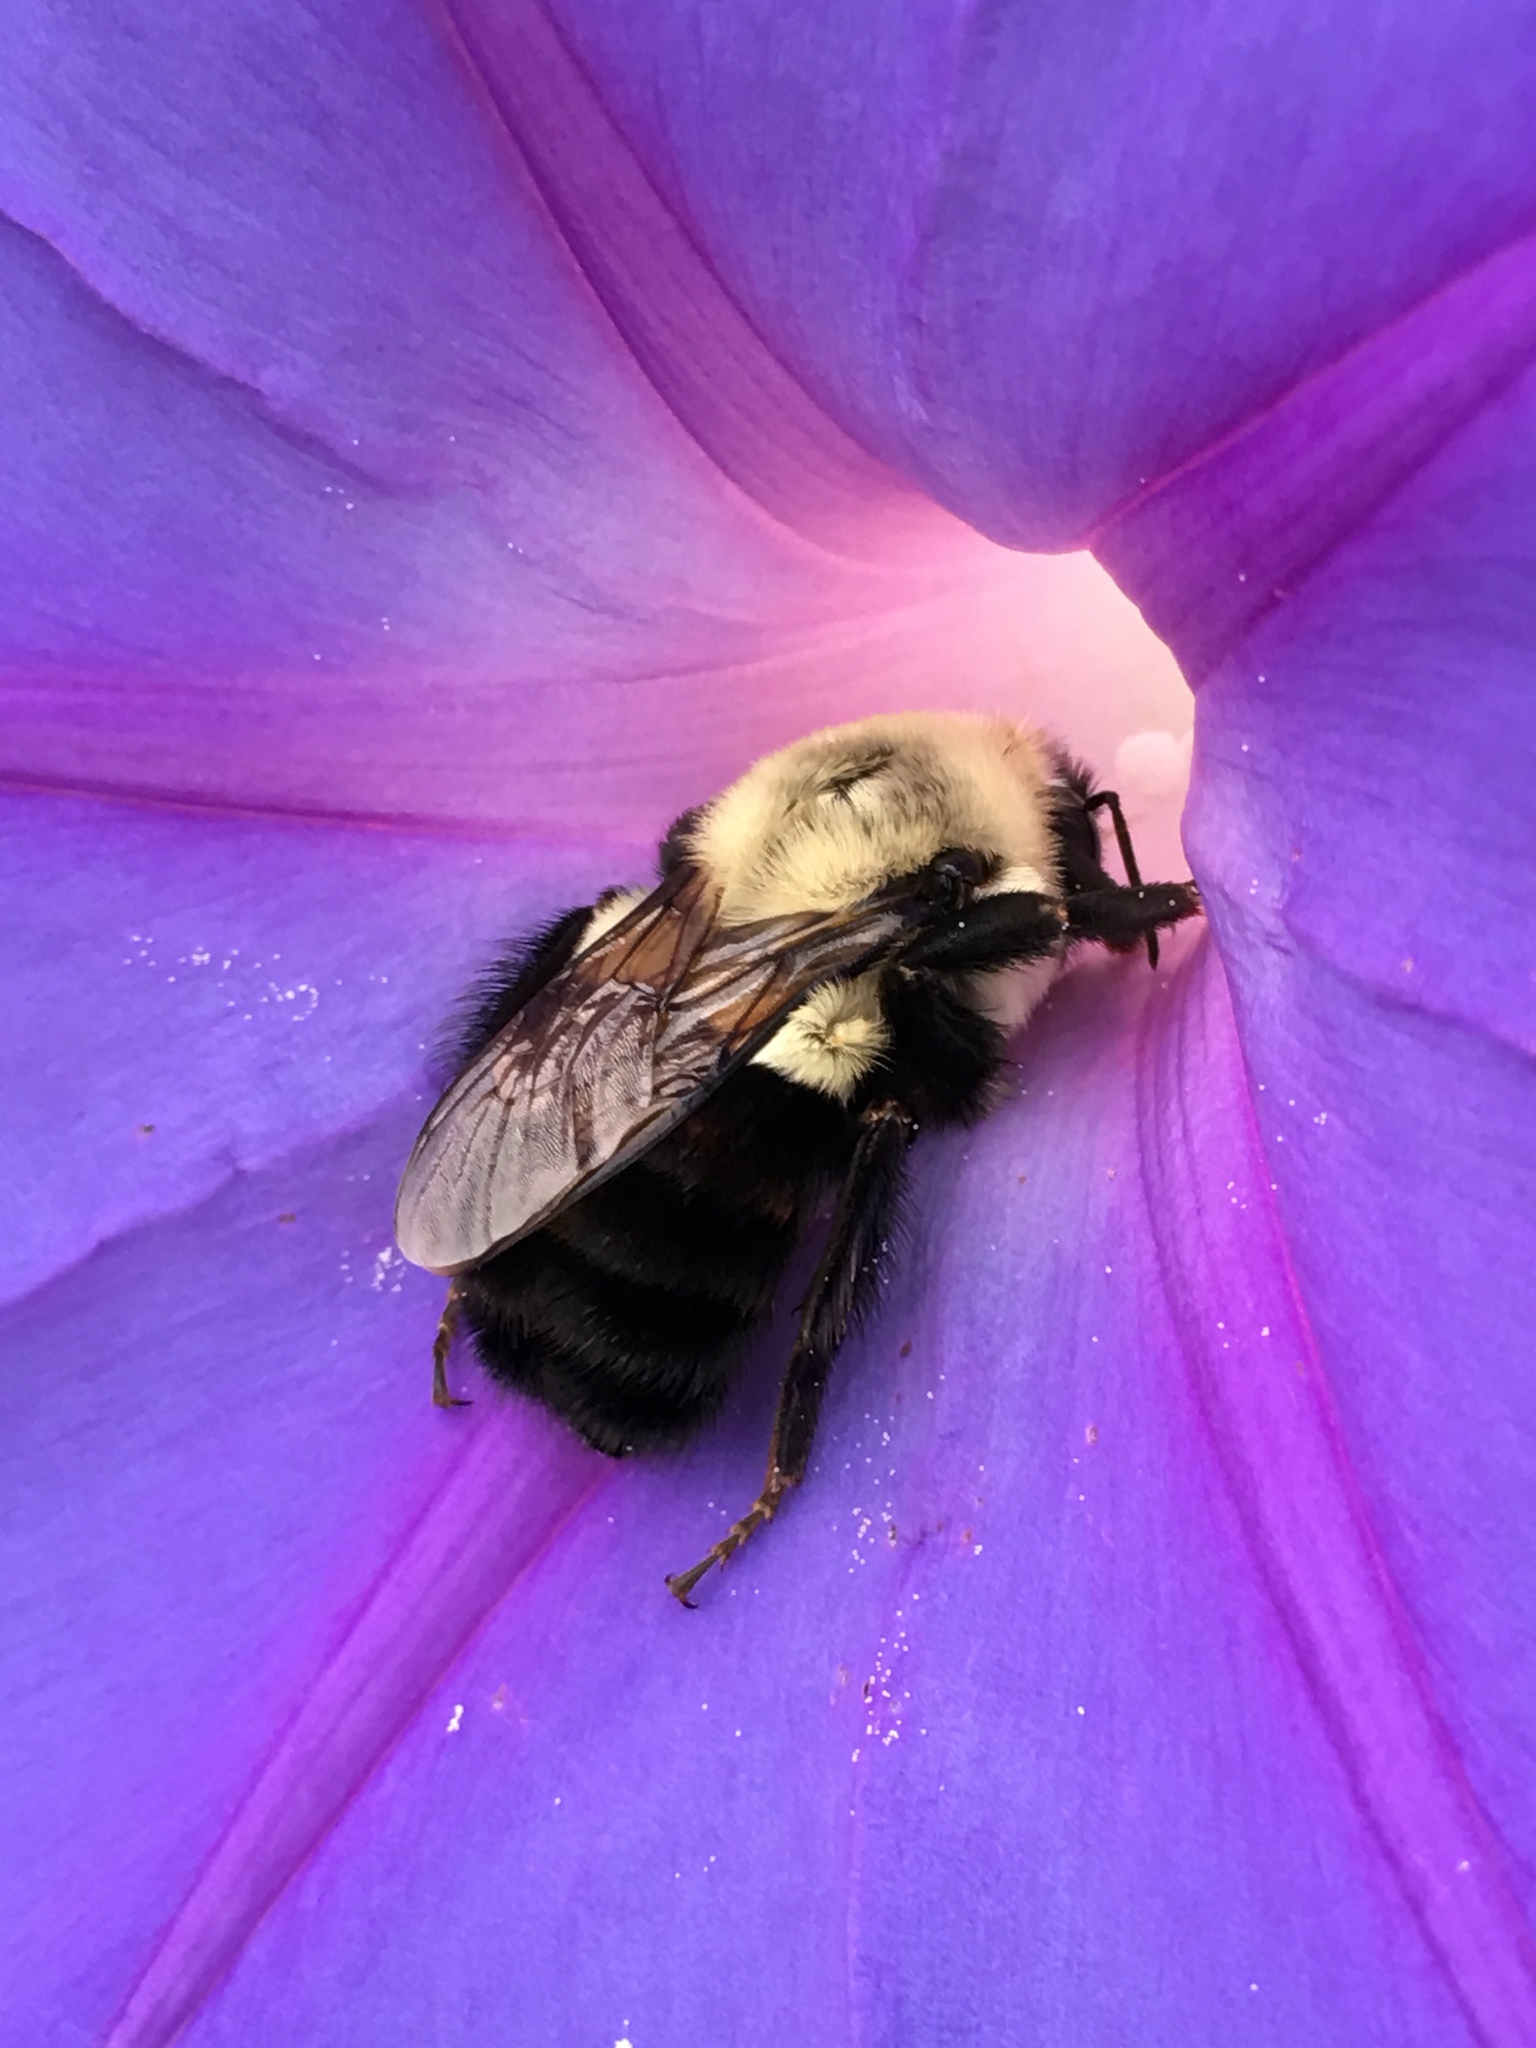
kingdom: Animalia
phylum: Arthropoda
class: Insecta
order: Hymenoptera
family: Apidae
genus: Bombus
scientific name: Bombus impatiens
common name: Common eastern bumble bee
